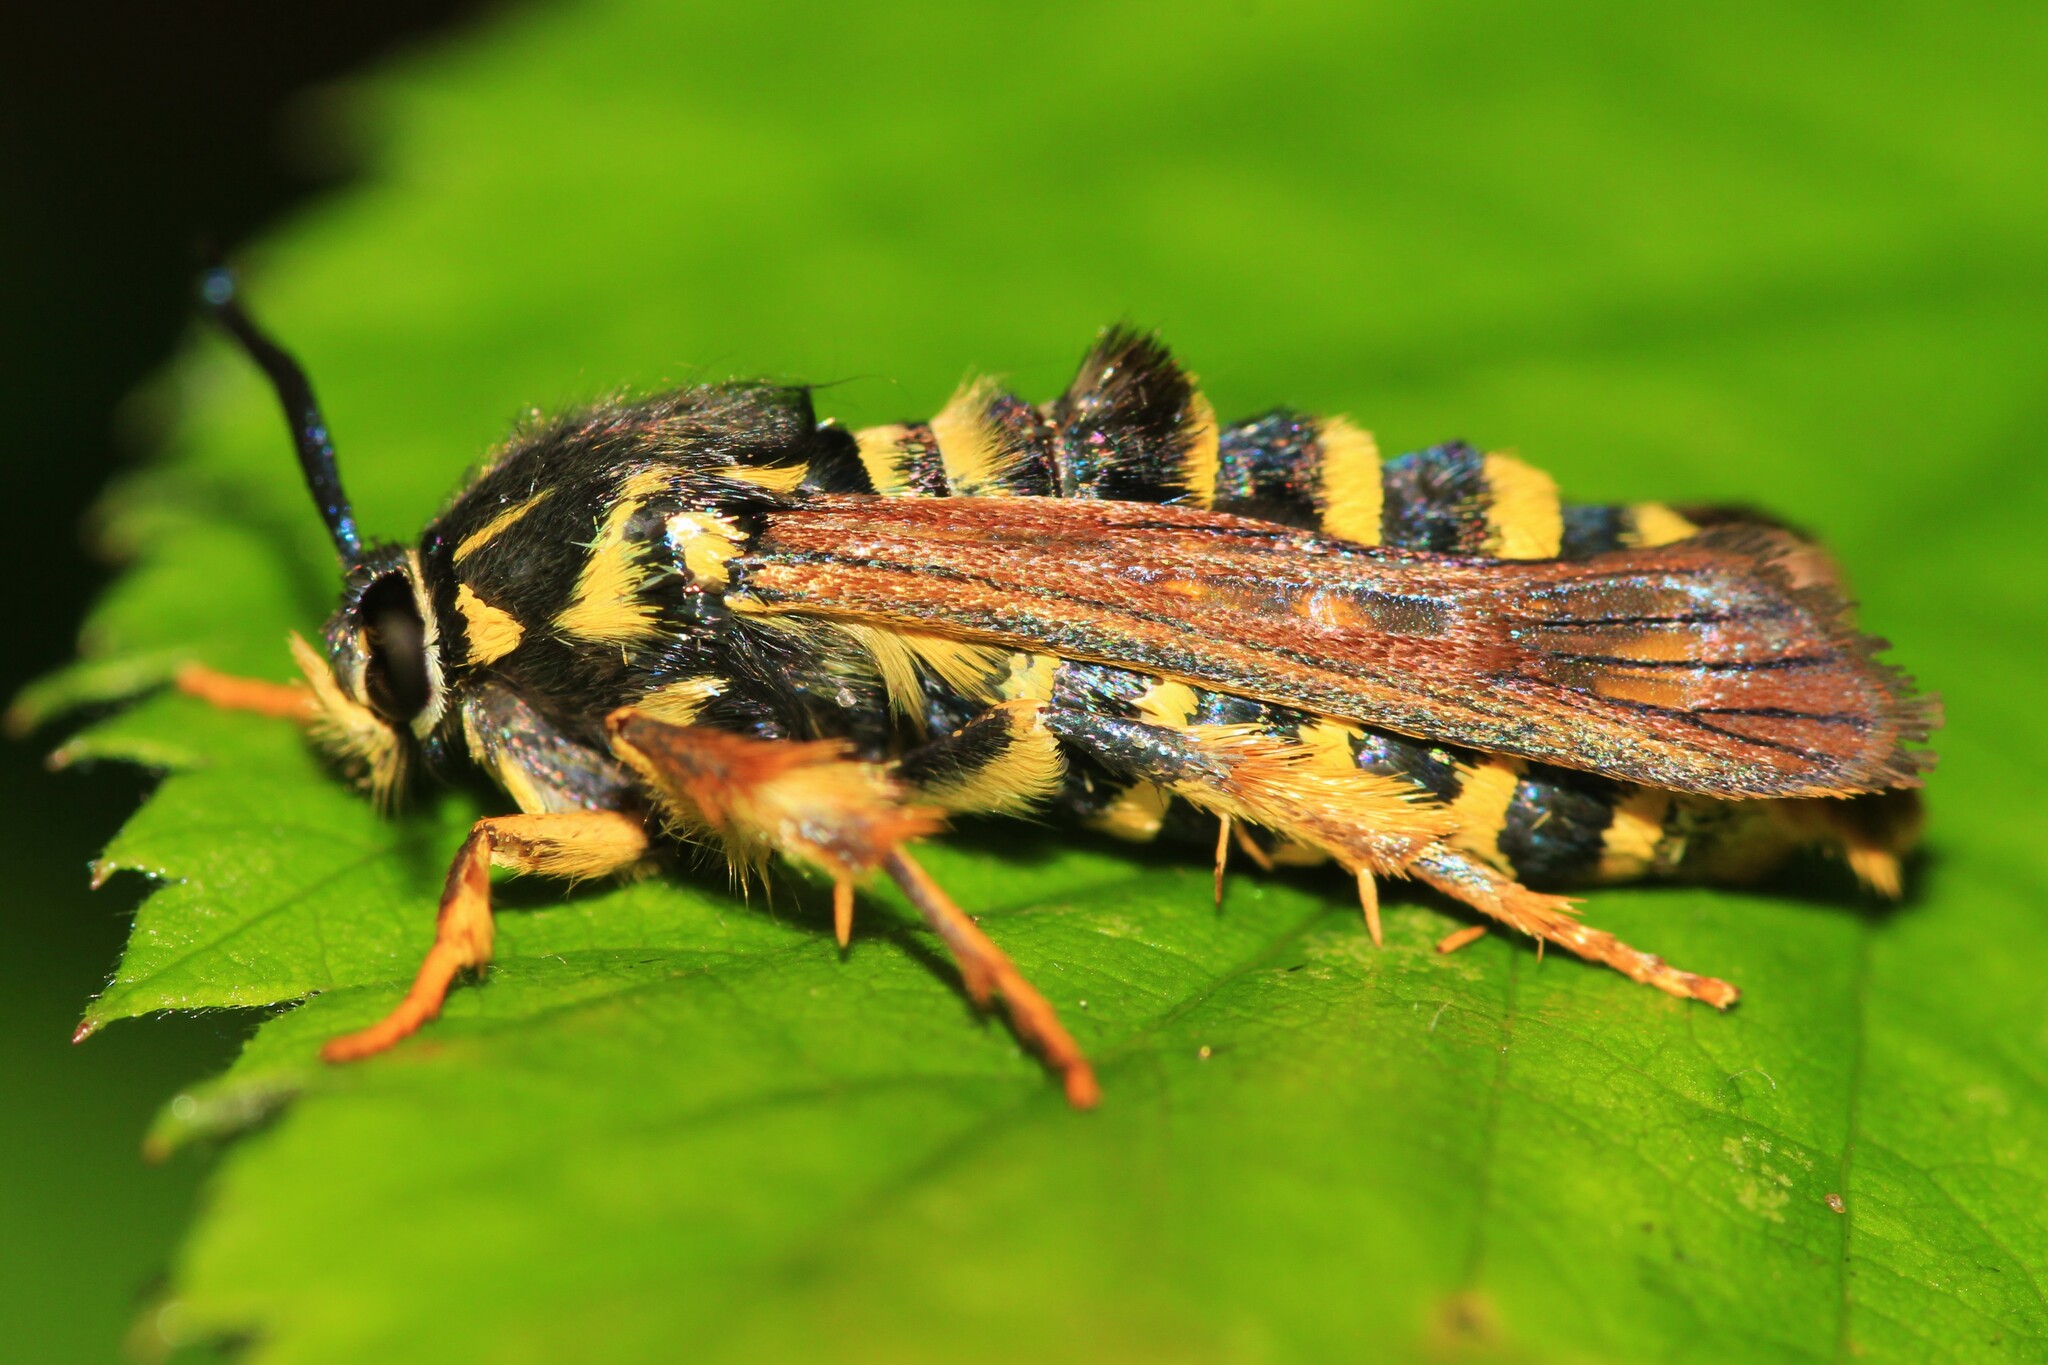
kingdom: Animalia
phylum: Arthropoda
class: Insecta
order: Lepidoptera
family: Sesiidae
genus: Pennisetia
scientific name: Pennisetia marginatum
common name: Raspberry crown borer
